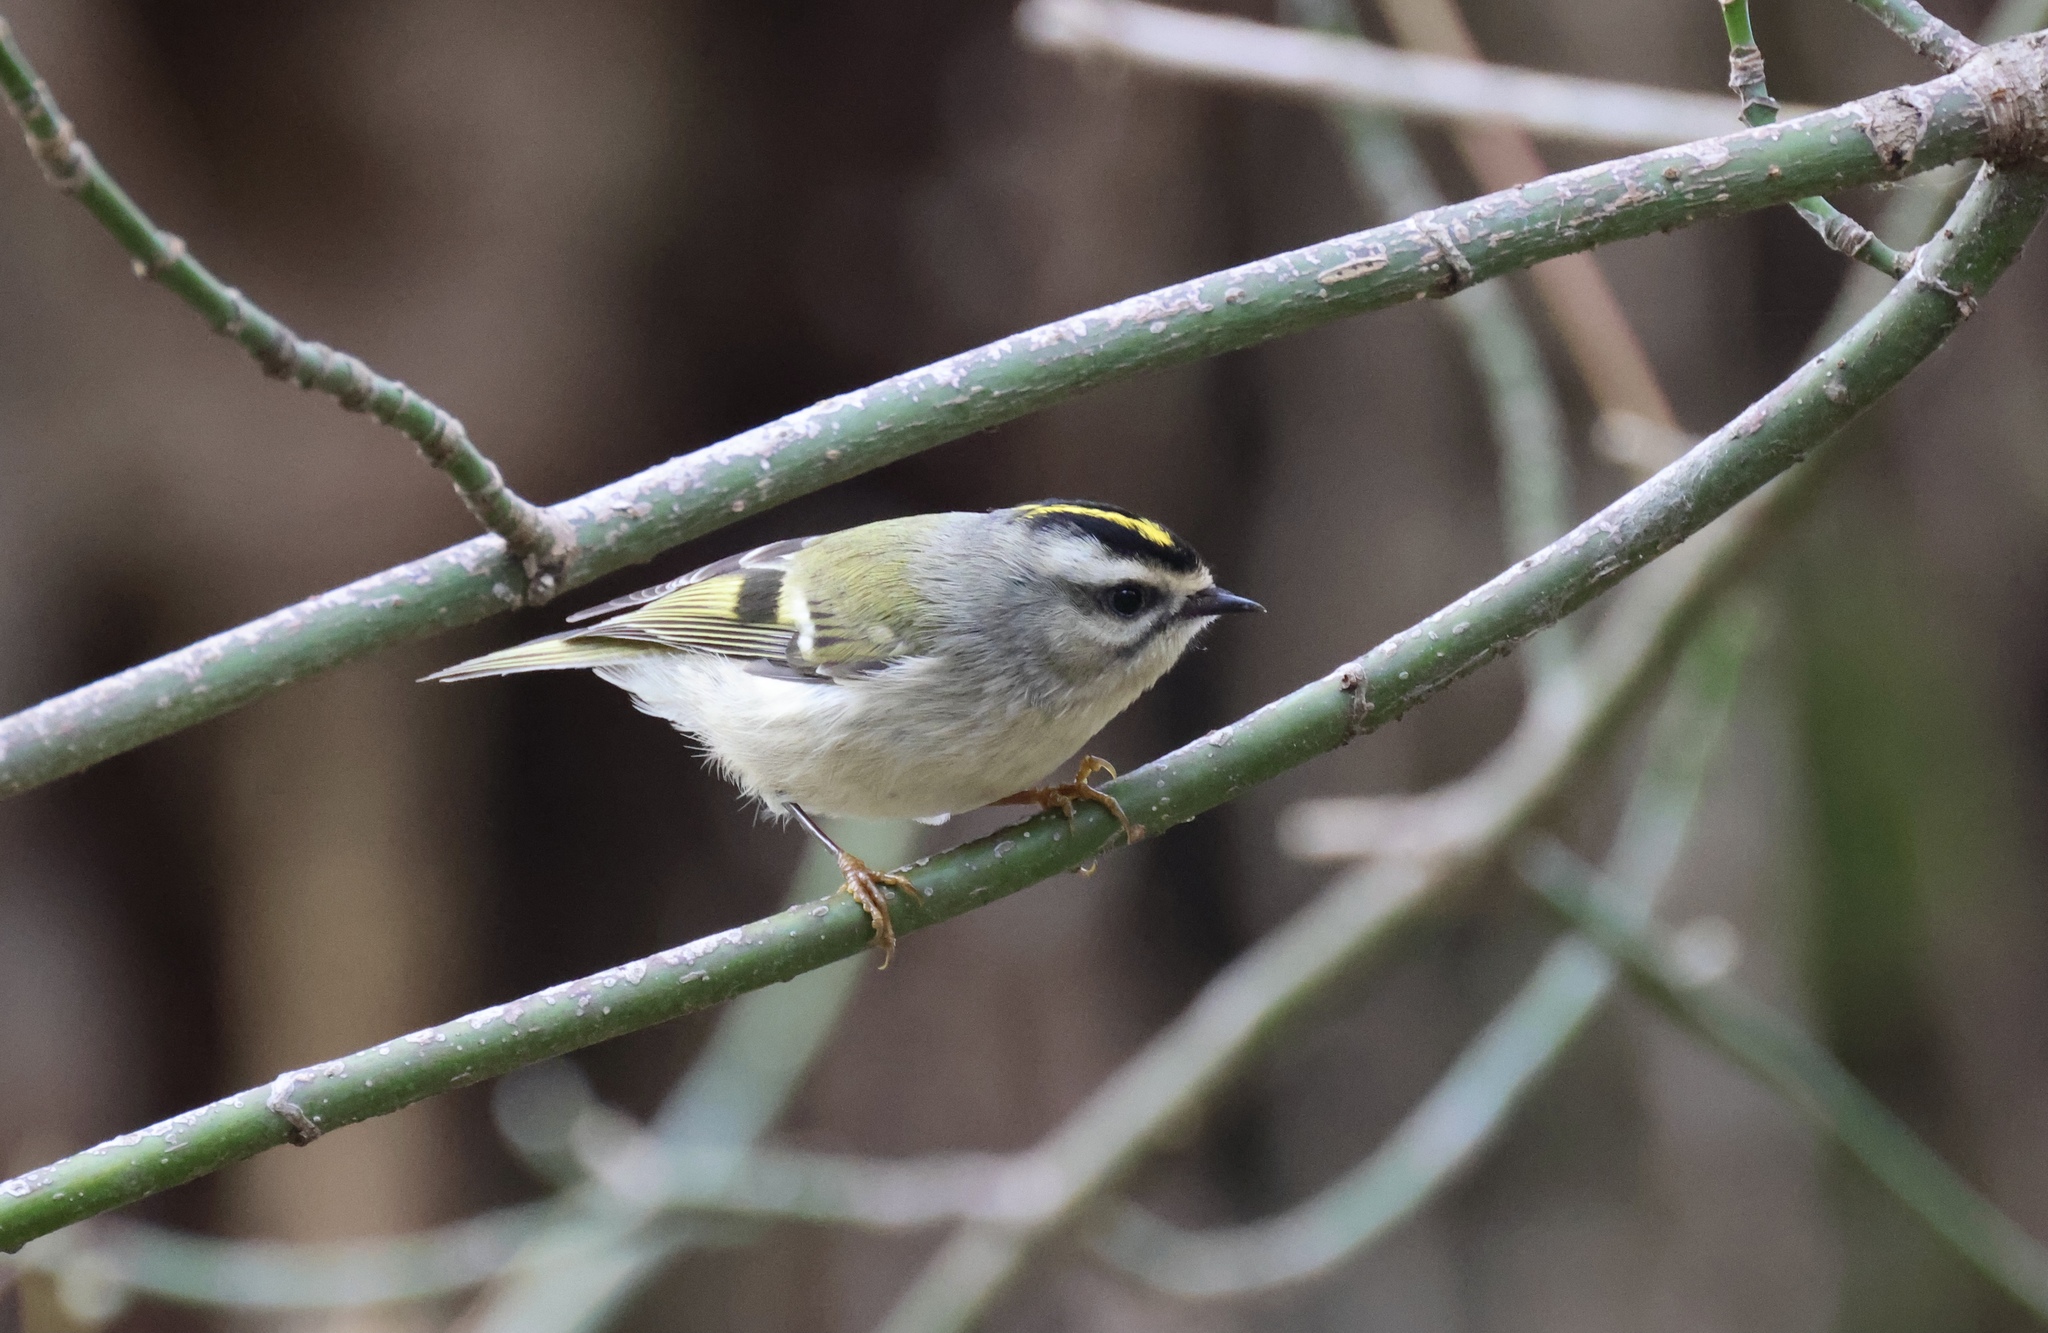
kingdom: Animalia
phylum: Chordata
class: Aves
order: Passeriformes
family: Regulidae
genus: Regulus
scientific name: Regulus satrapa
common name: Golden-crowned kinglet
